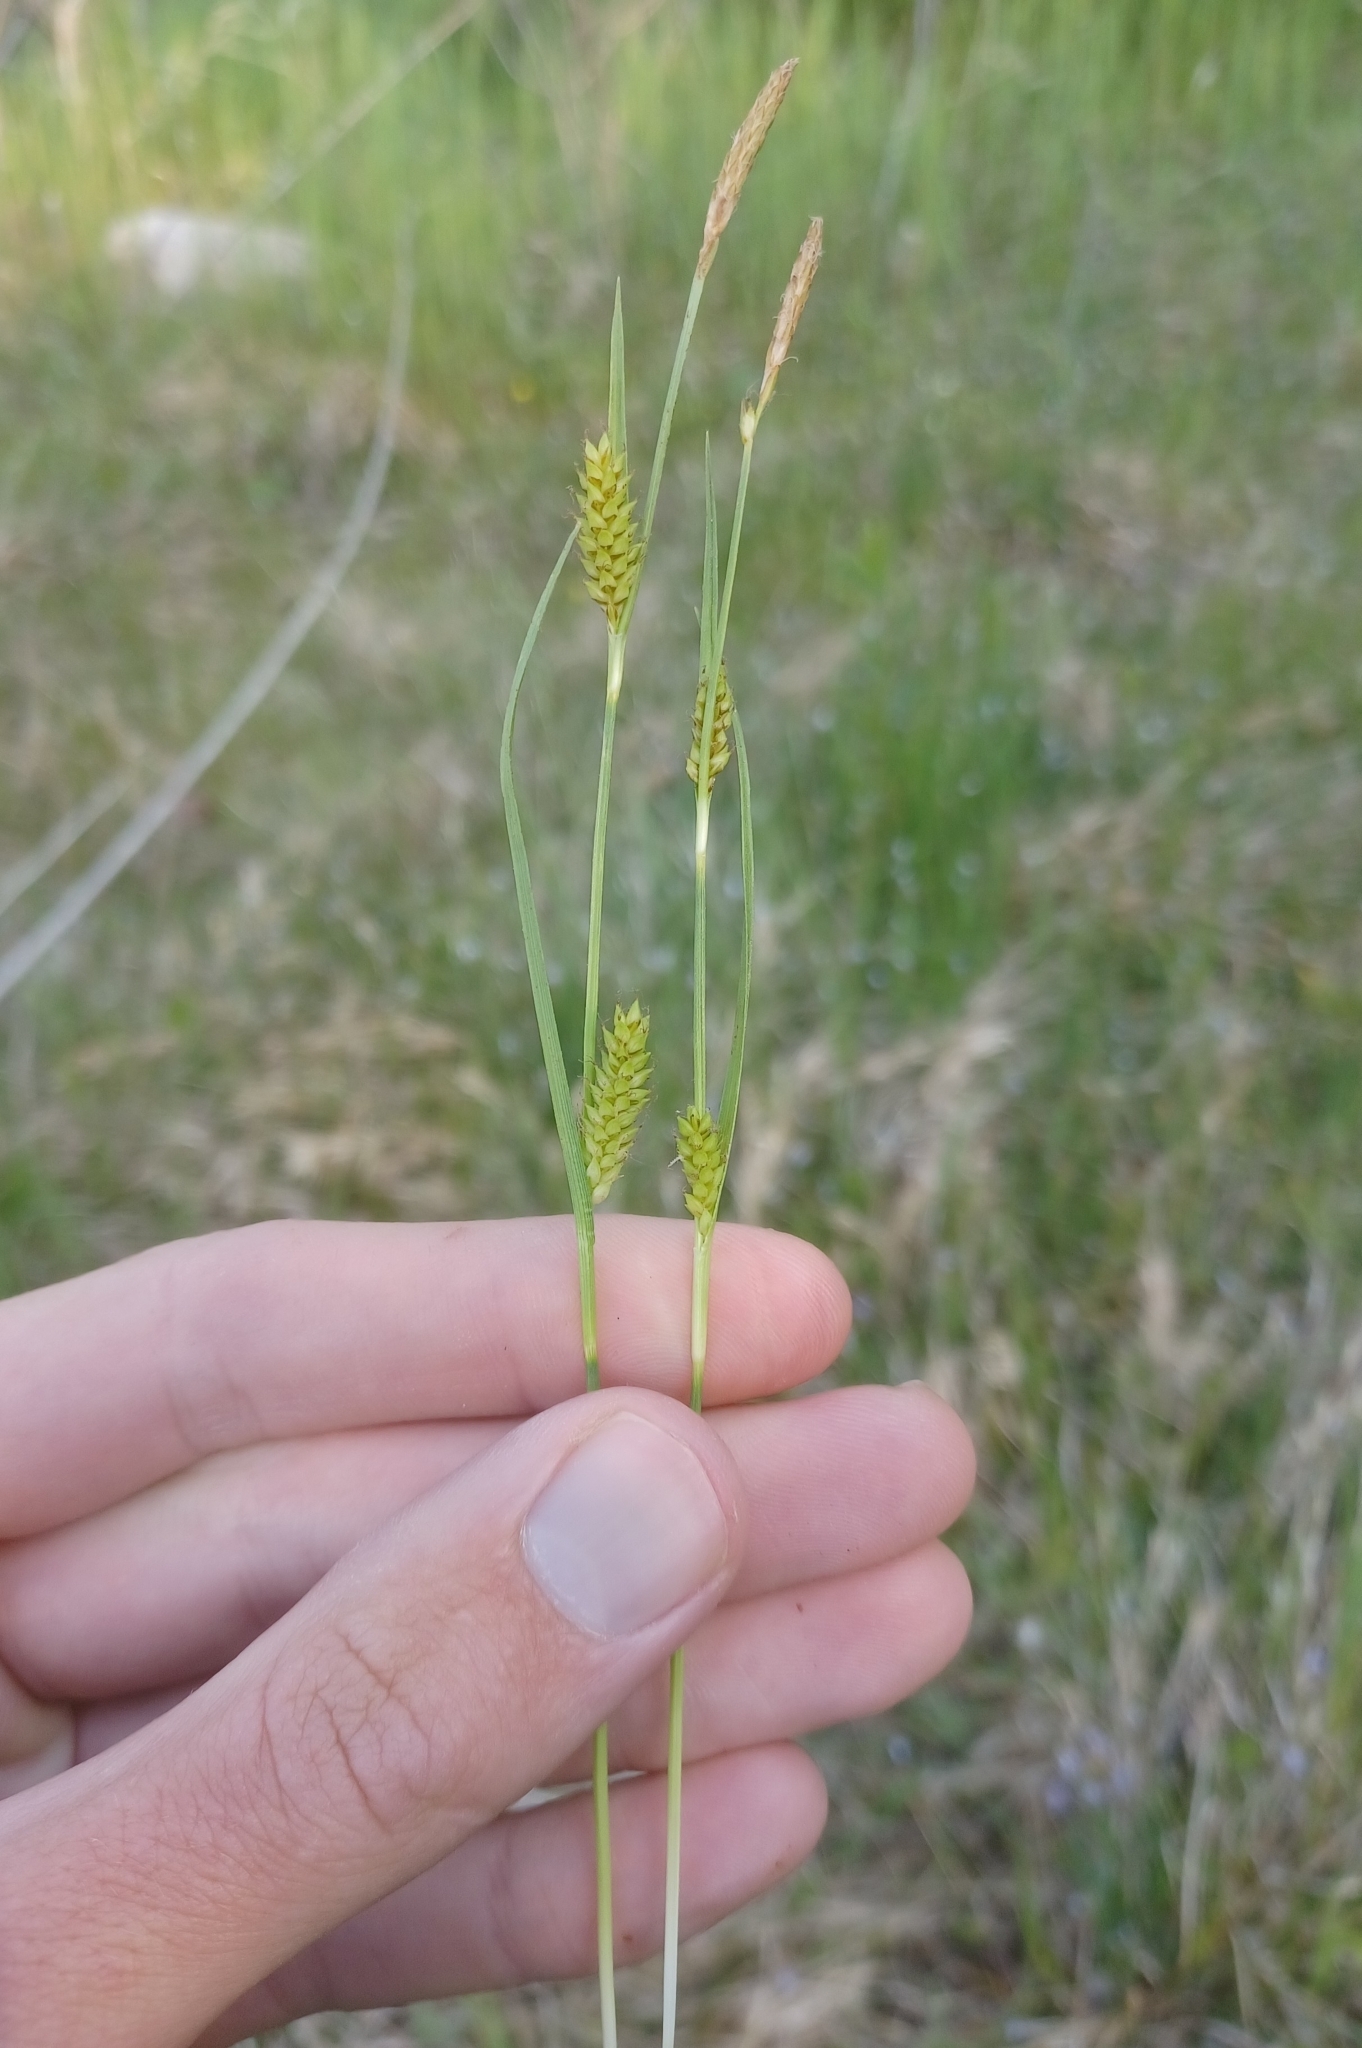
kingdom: Plantae
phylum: Tracheophyta
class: Liliopsida
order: Poales
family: Cyperaceae
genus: Carex
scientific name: Carex crawei
